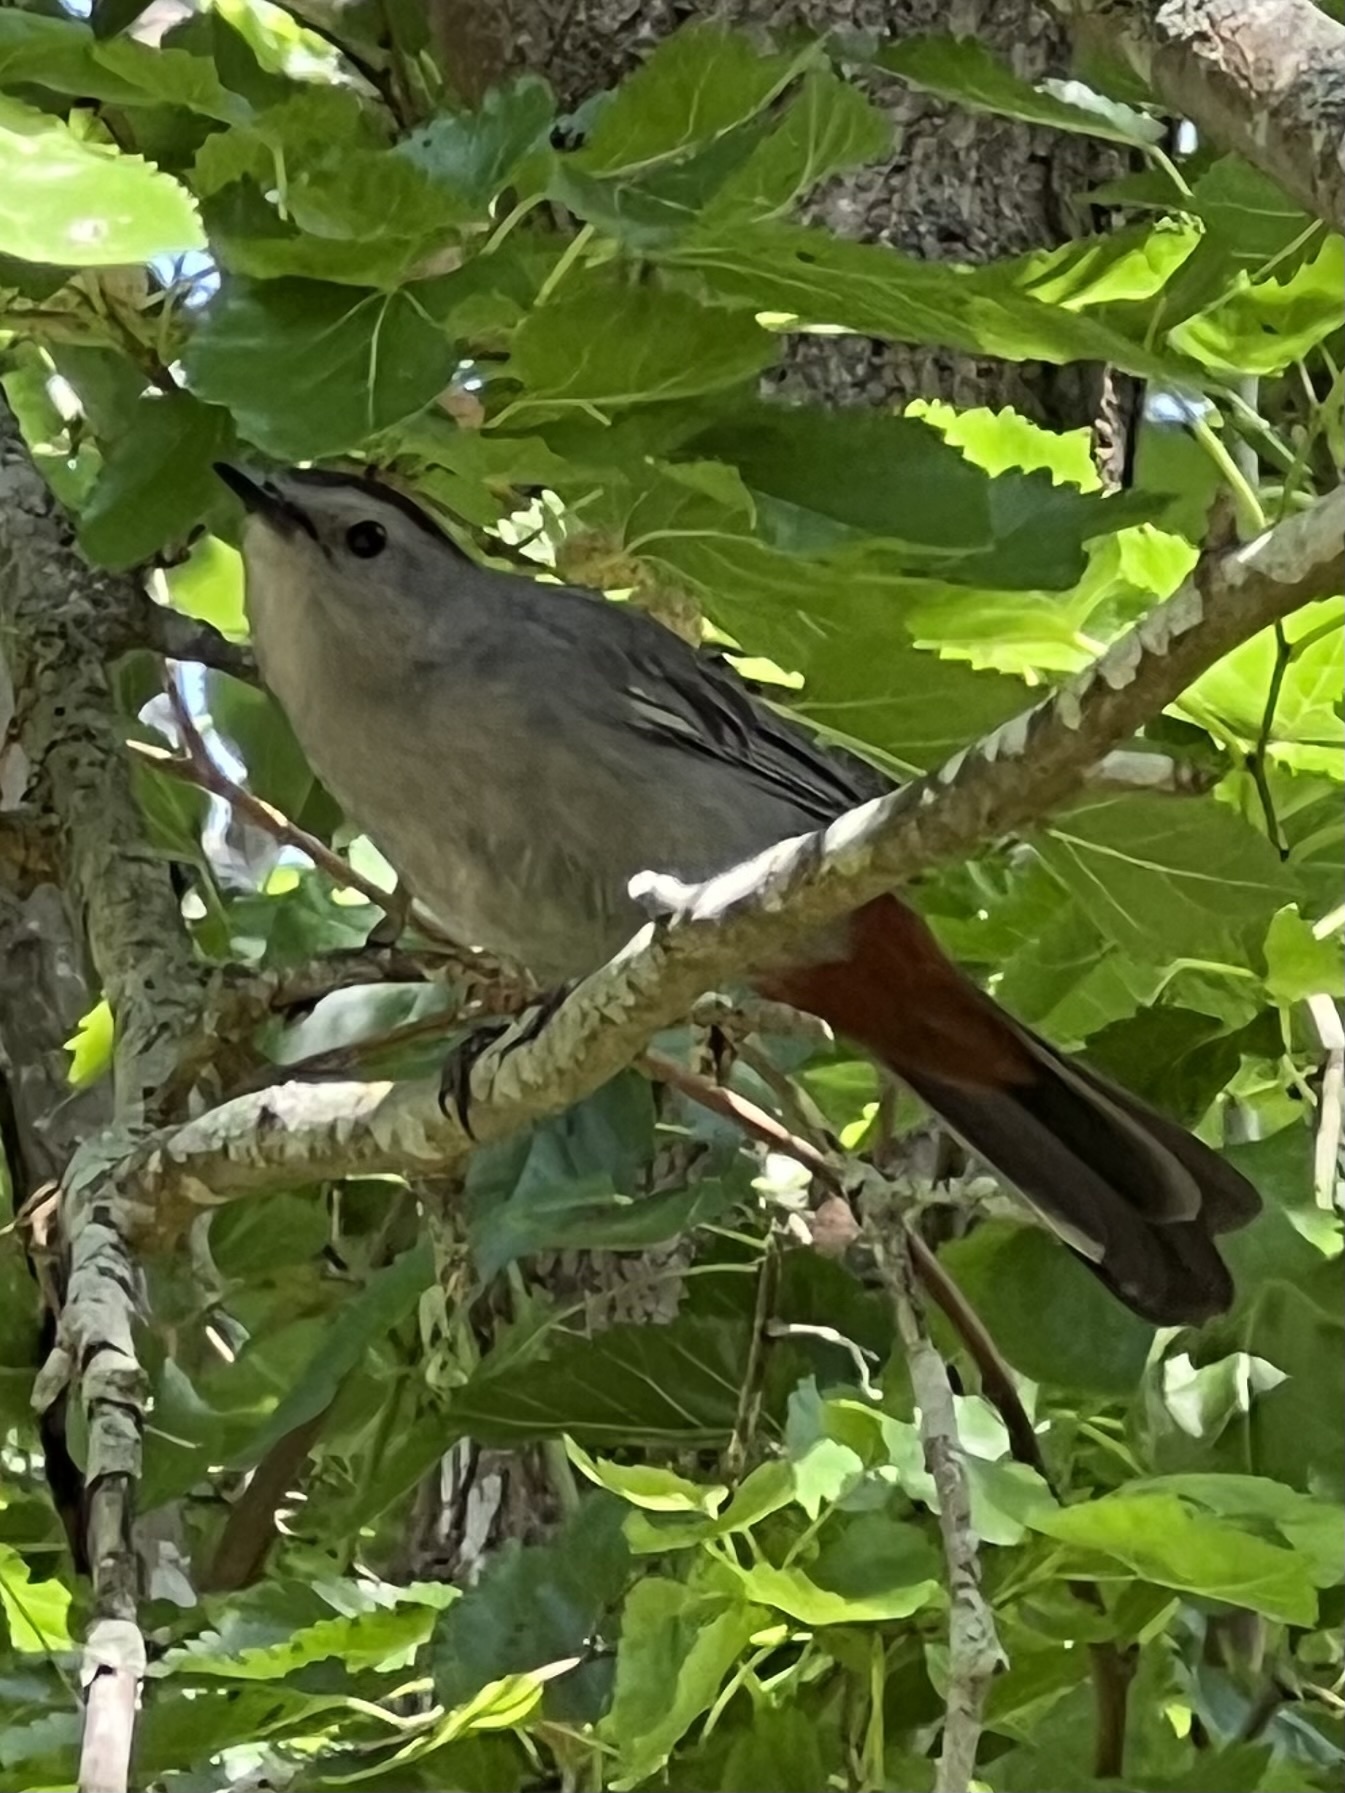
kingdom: Animalia
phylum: Chordata
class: Aves
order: Passeriformes
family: Mimidae
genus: Dumetella
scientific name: Dumetella carolinensis
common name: Gray catbird
